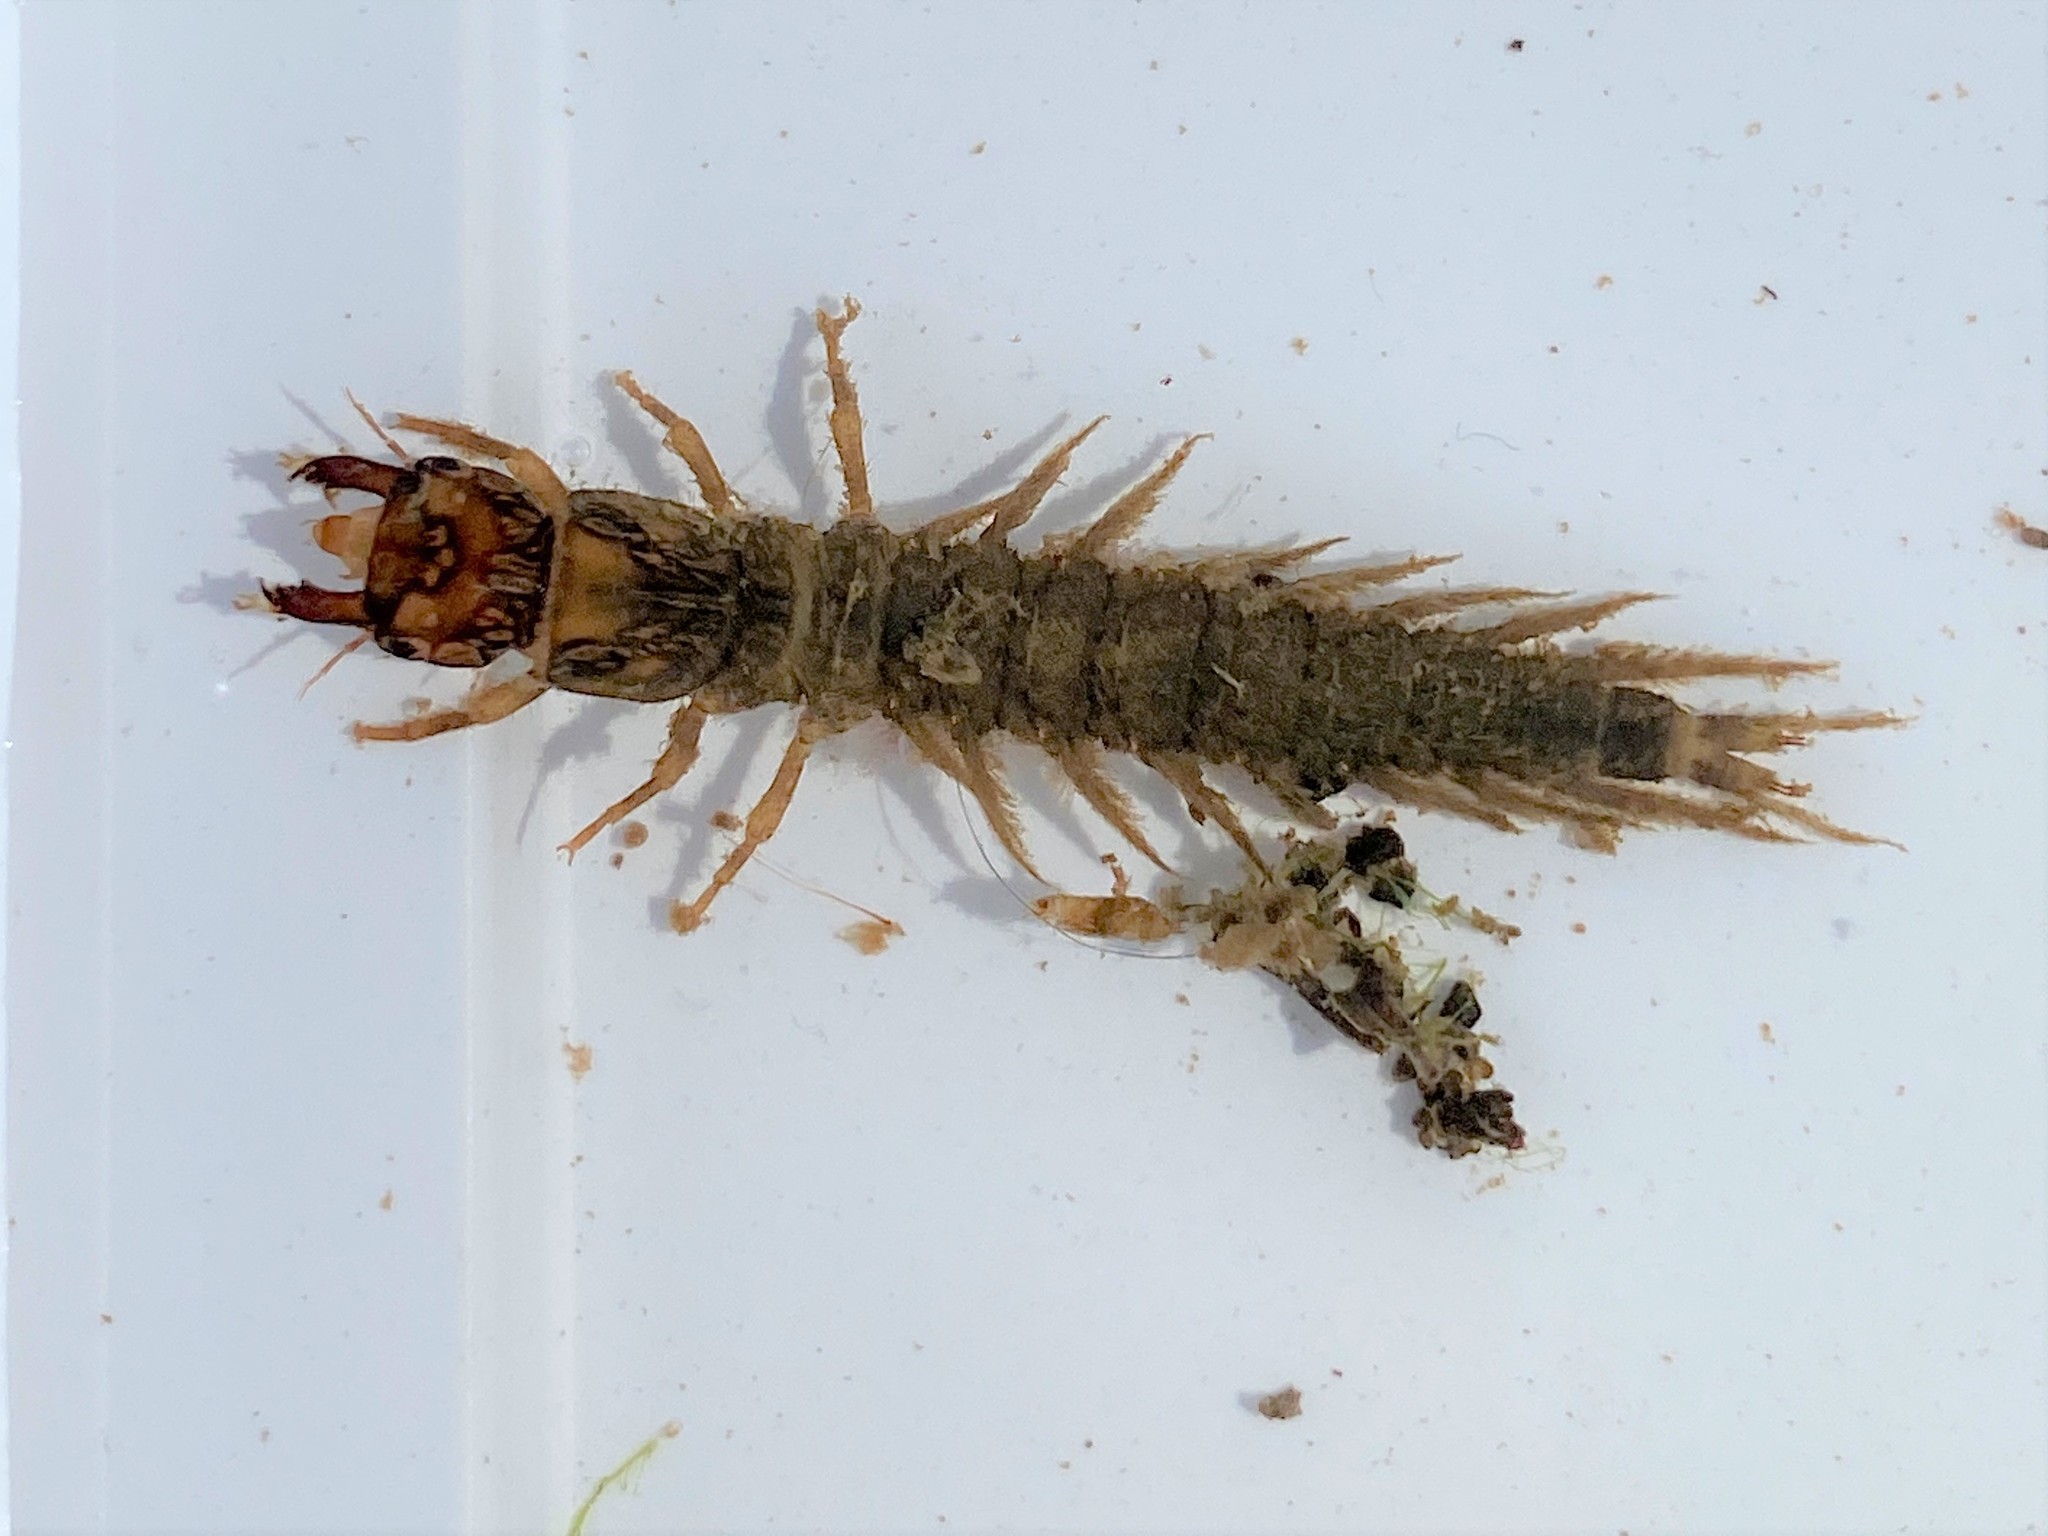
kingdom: Animalia
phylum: Arthropoda
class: Insecta
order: Megaloptera
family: Corydalidae
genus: Corydalus
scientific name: Corydalus cornutus
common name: Dobsonfly
